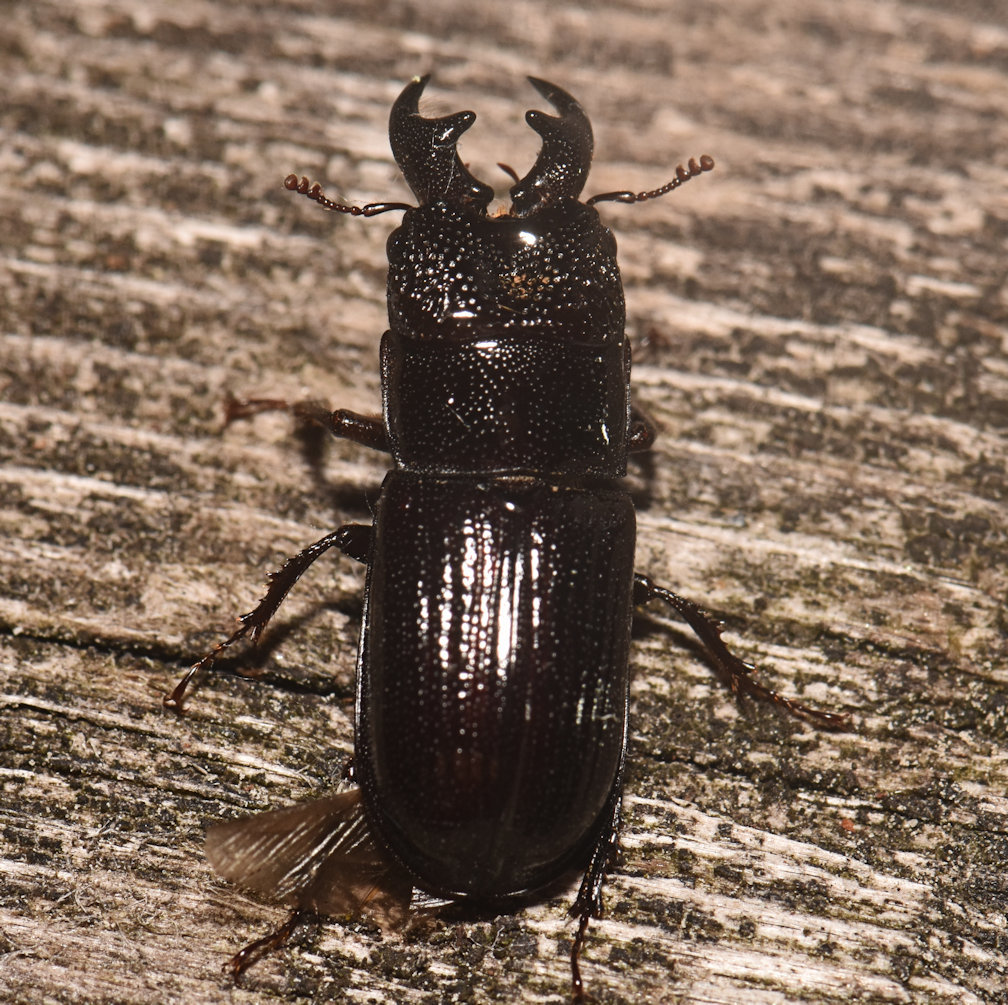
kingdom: Animalia
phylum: Arthropoda
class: Insecta
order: Coleoptera
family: Lucanidae
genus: Ceruchus
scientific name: Ceruchus piceus
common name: Red-rot decay stag beetle
